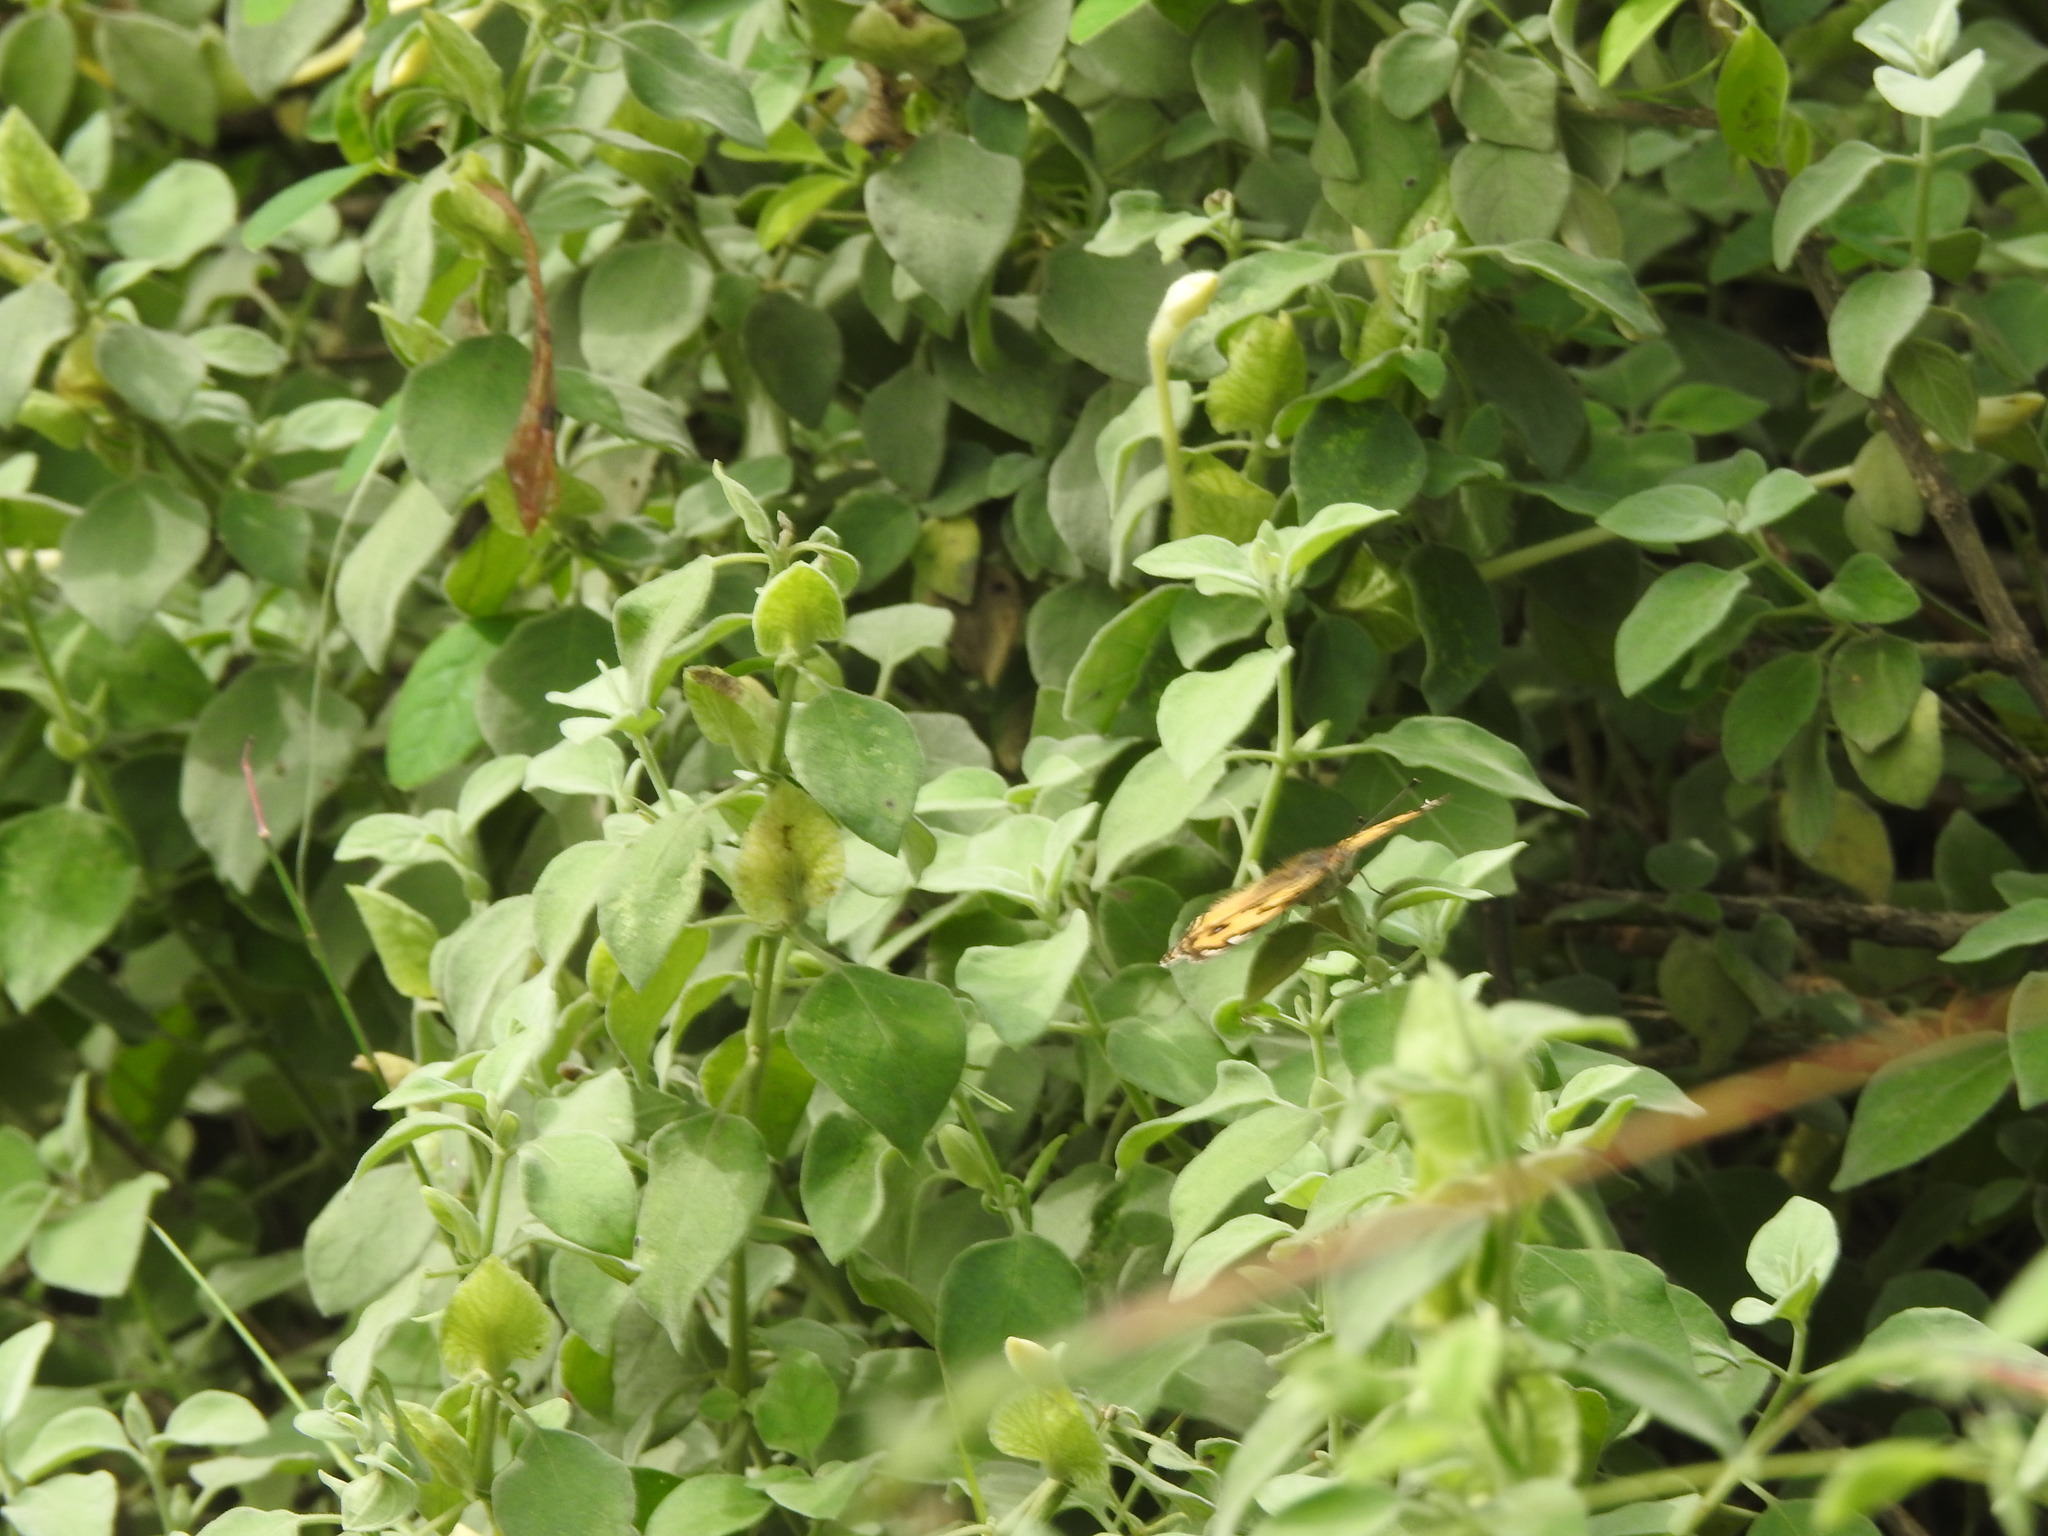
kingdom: Animalia
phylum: Arthropoda
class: Insecta
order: Lepidoptera
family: Nymphalidae
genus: Junonia
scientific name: Junonia hierta
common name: Yellow pansy
